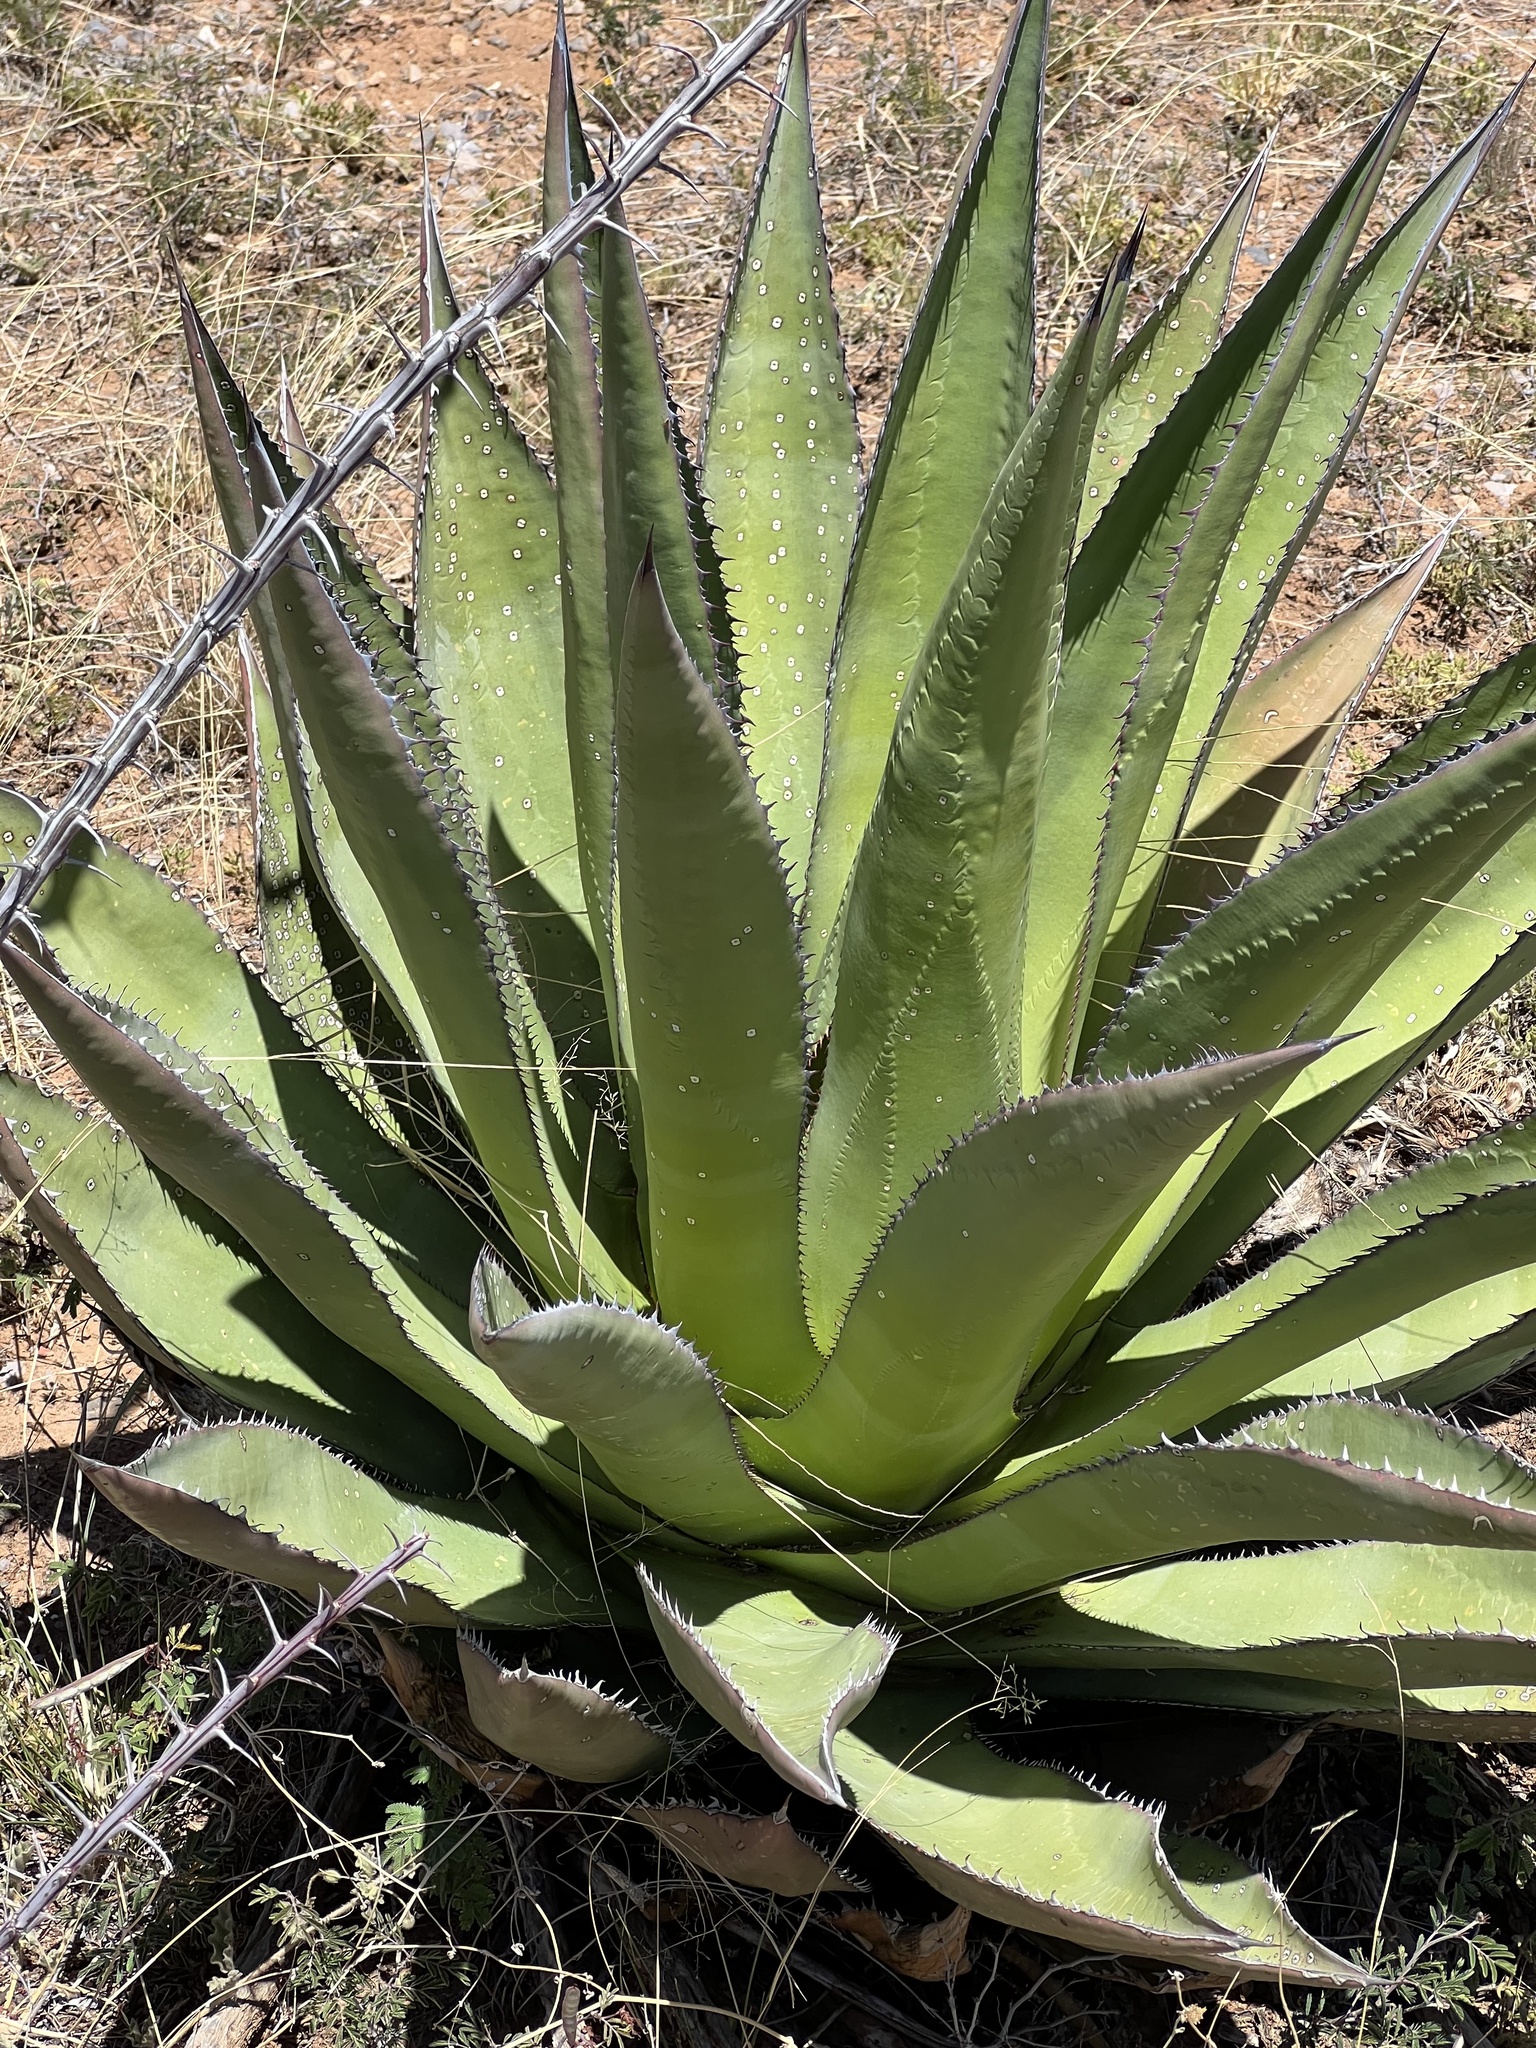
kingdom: Plantae
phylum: Tracheophyta
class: Liliopsida
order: Asparagales
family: Asparagaceae
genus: Agave
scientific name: Agave palmeri
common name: Palmer agave
